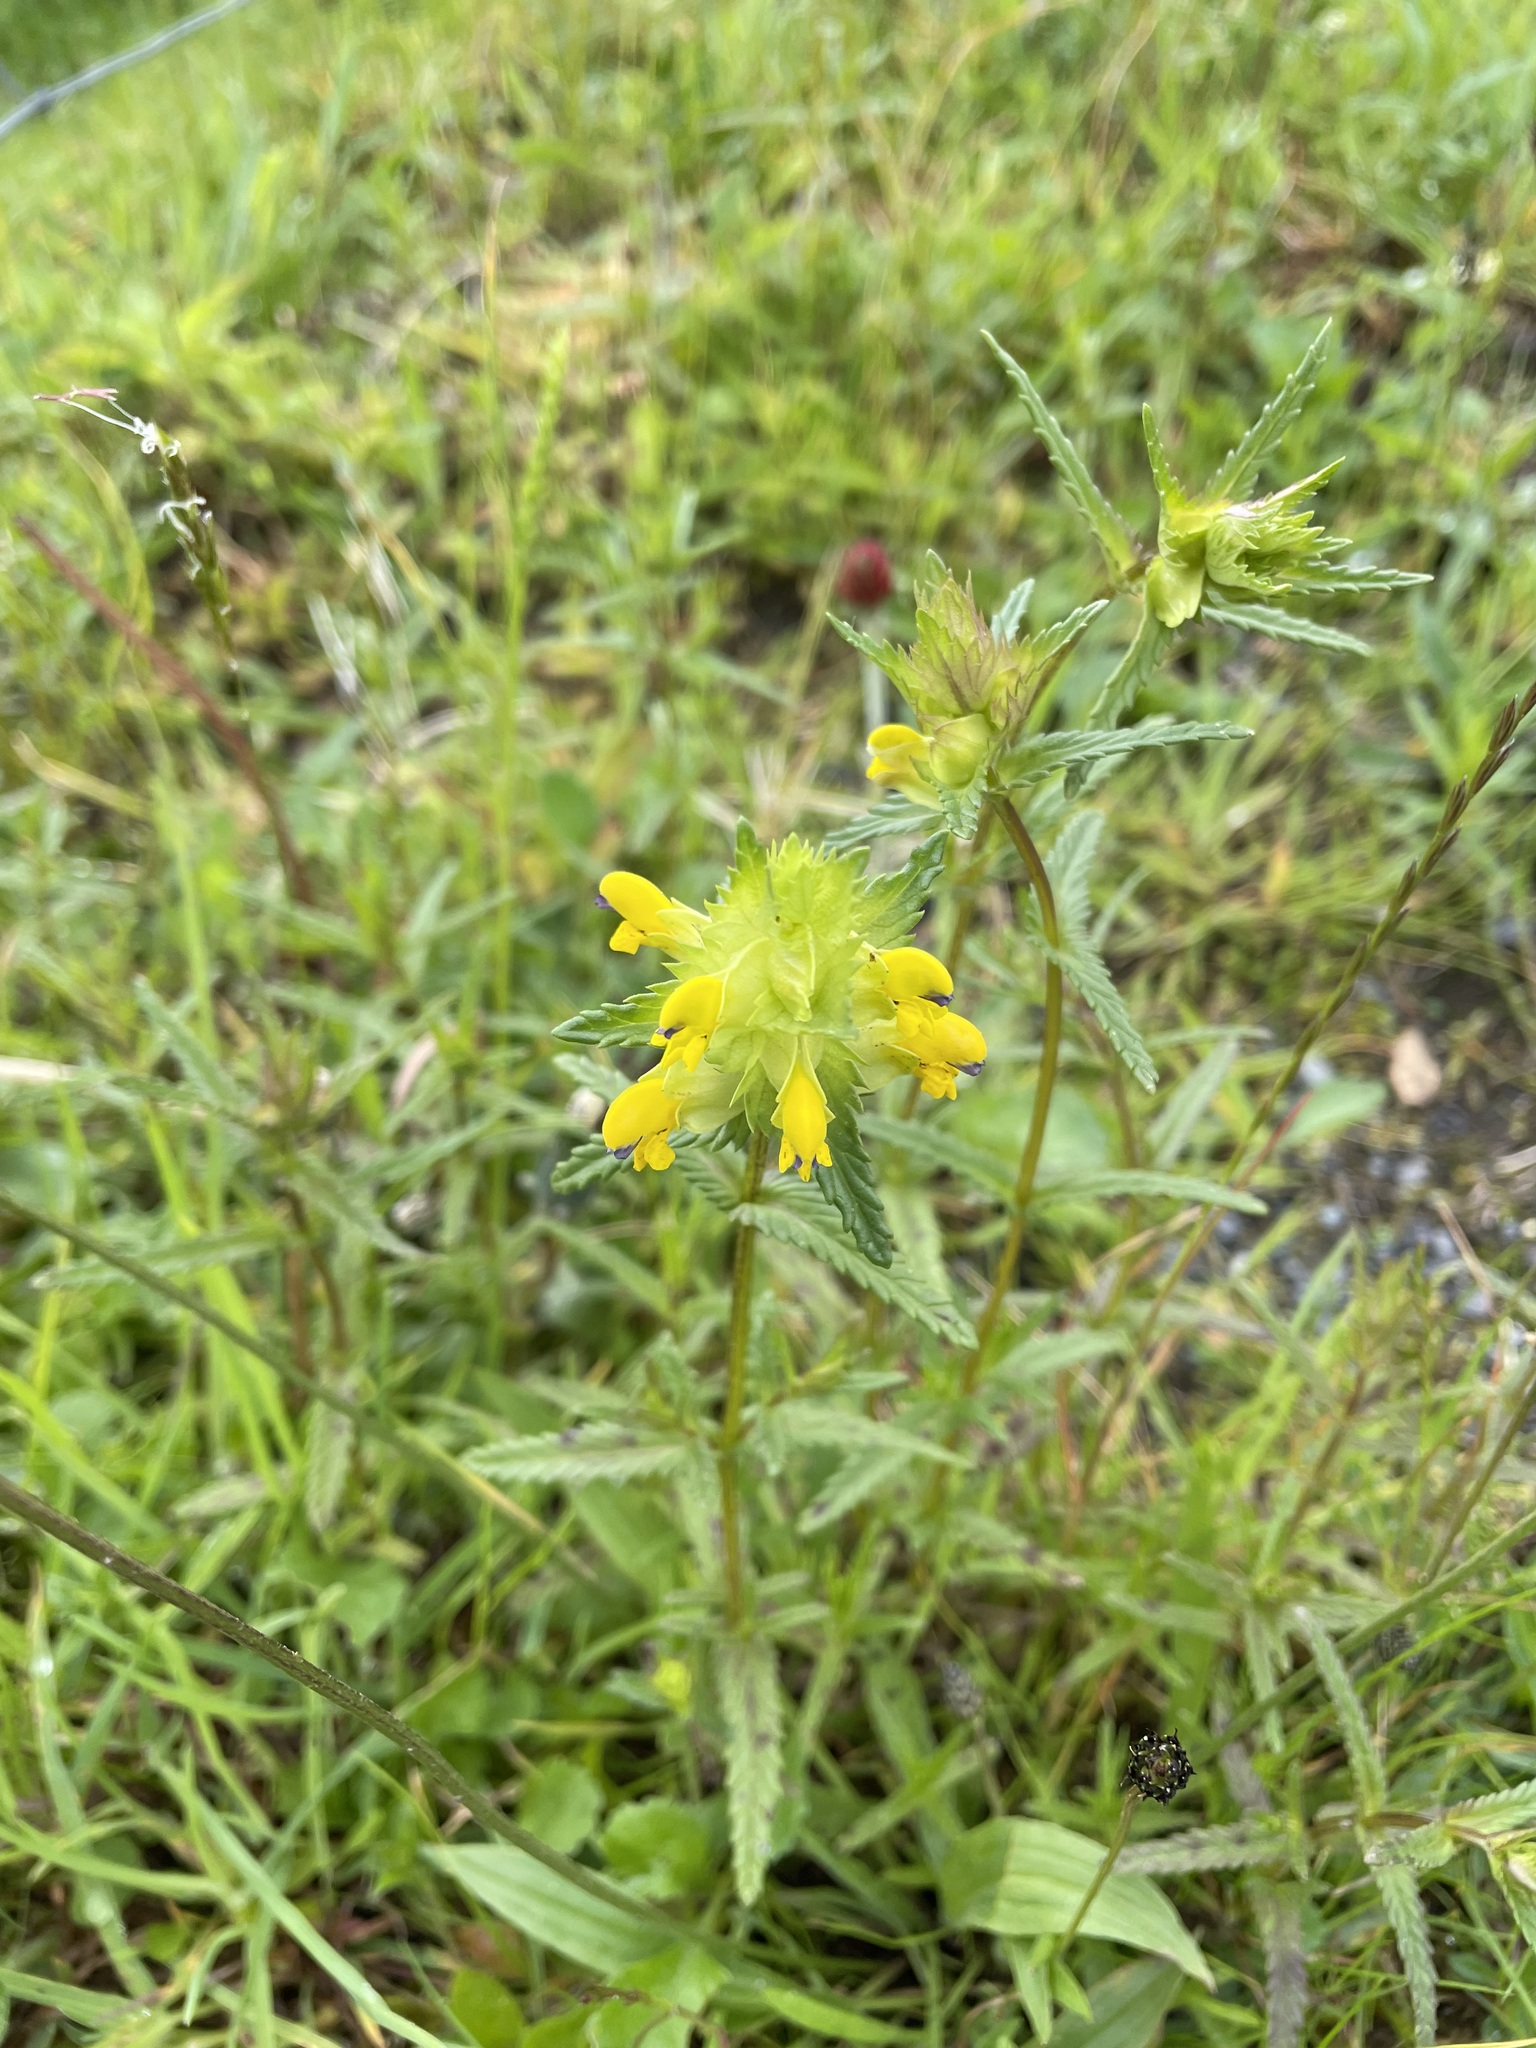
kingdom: Plantae
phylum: Tracheophyta
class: Magnoliopsida
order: Lamiales
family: Orobanchaceae
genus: Rhinanthus
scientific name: Rhinanthus minor
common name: Yellow-rattle
